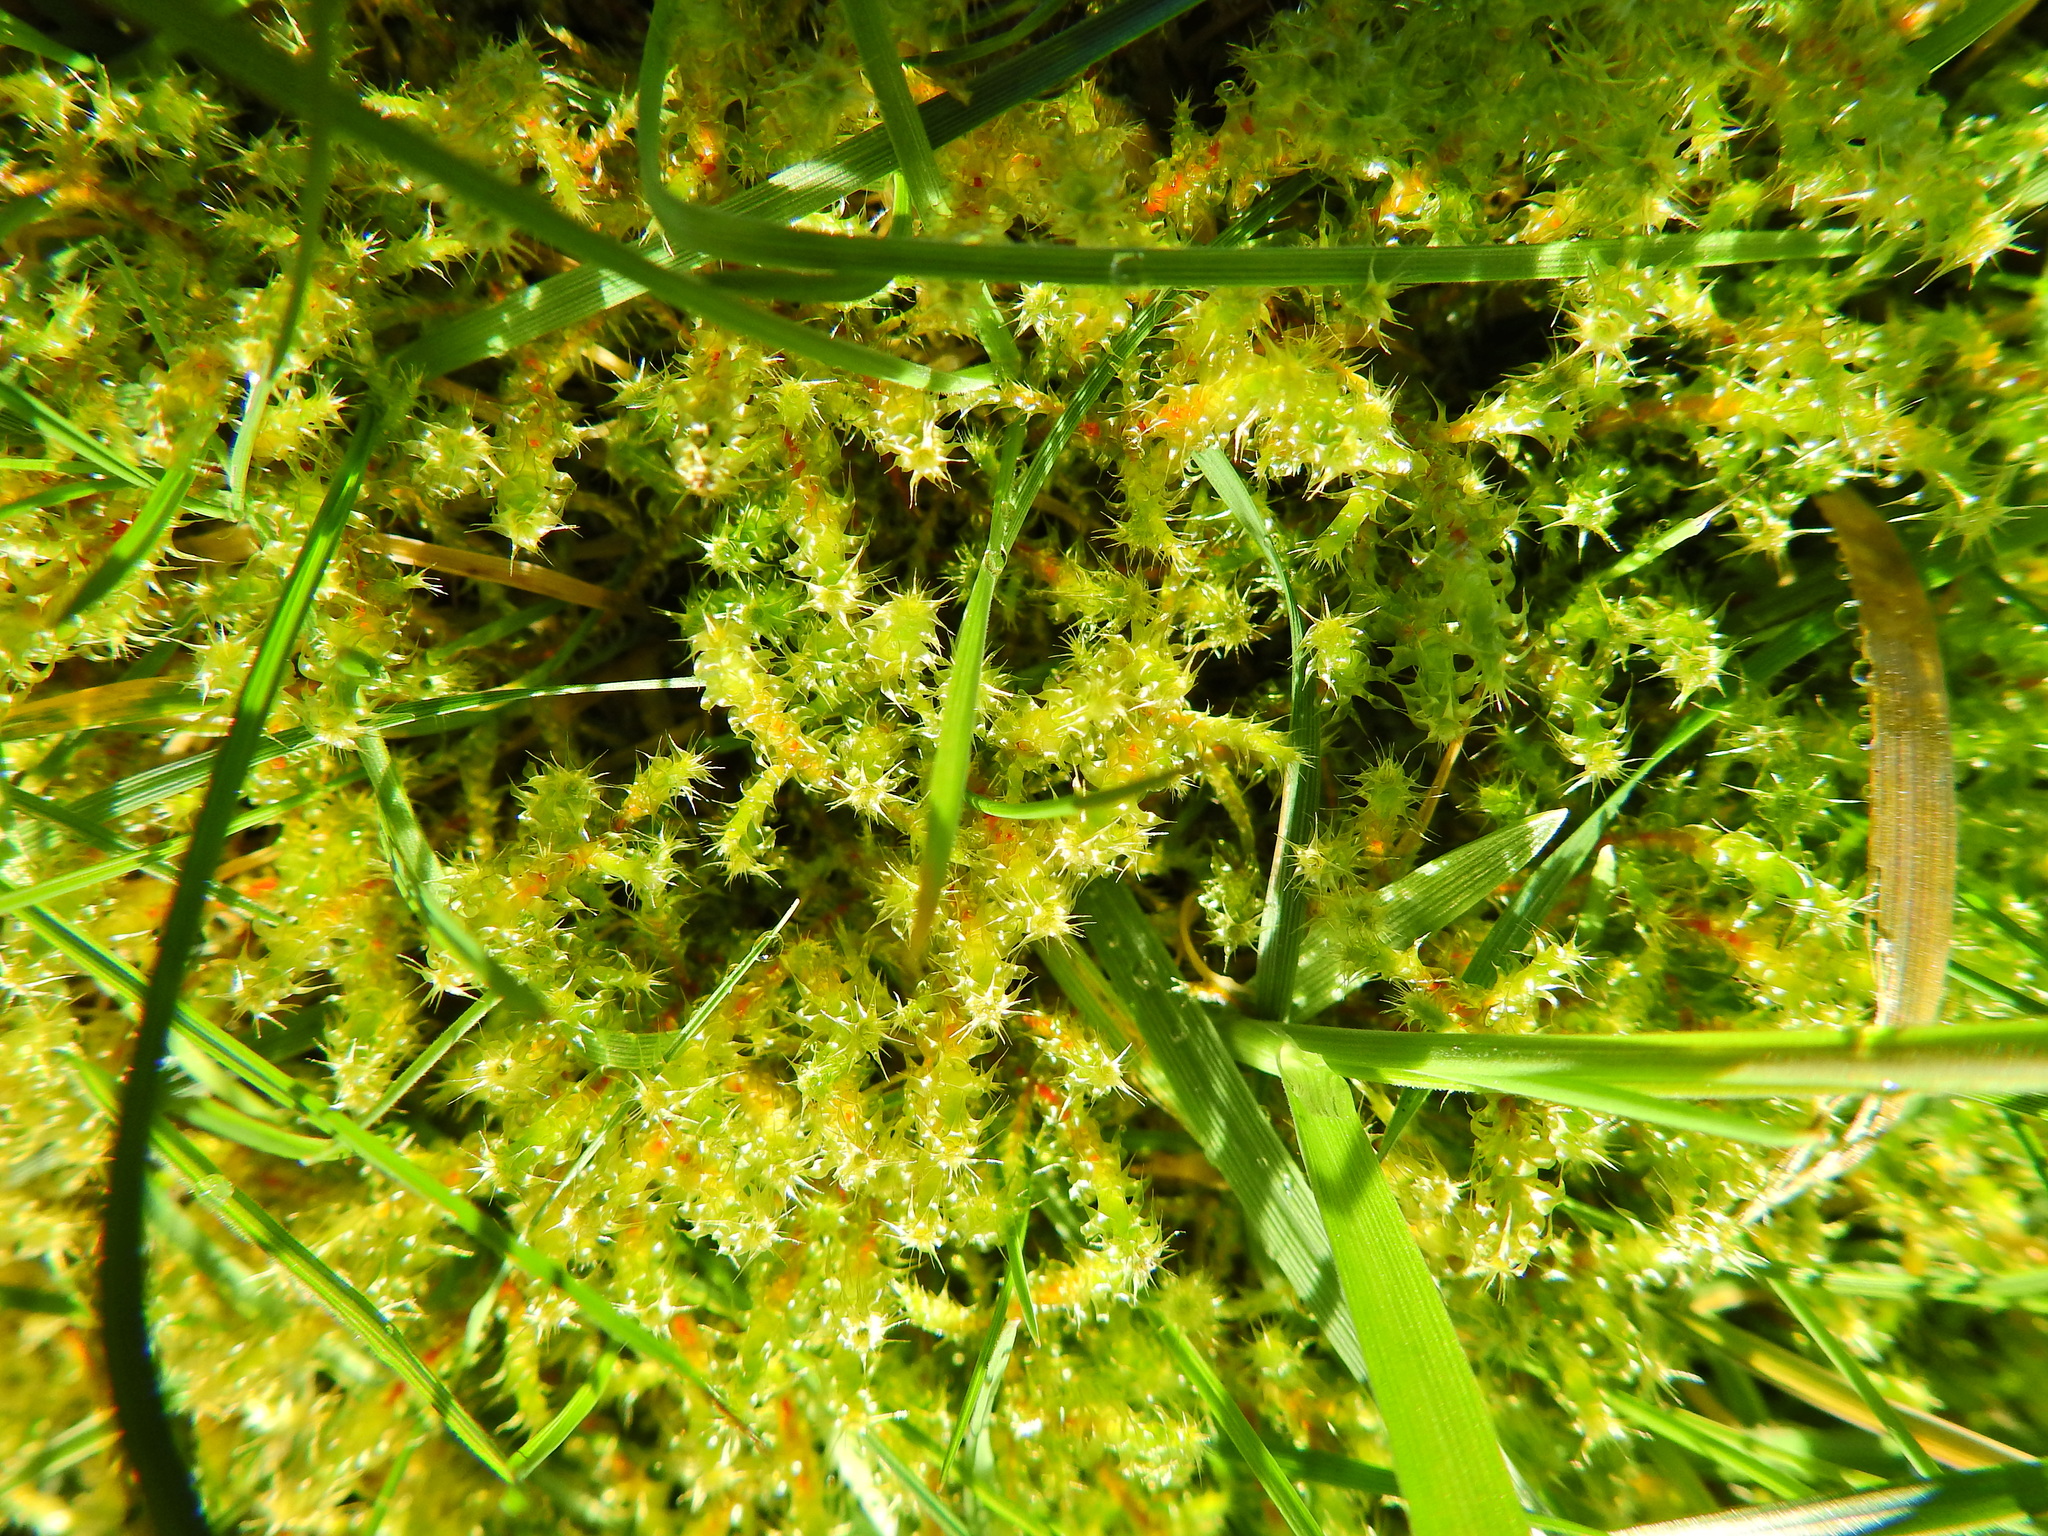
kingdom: Plantae
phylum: Bryophyta
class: Bryopsida
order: Hypnales
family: Hylocomiaceae
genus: Rhytidiadelphus
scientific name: Rhytidiadelphus squarrosus
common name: Springy turf-moss
